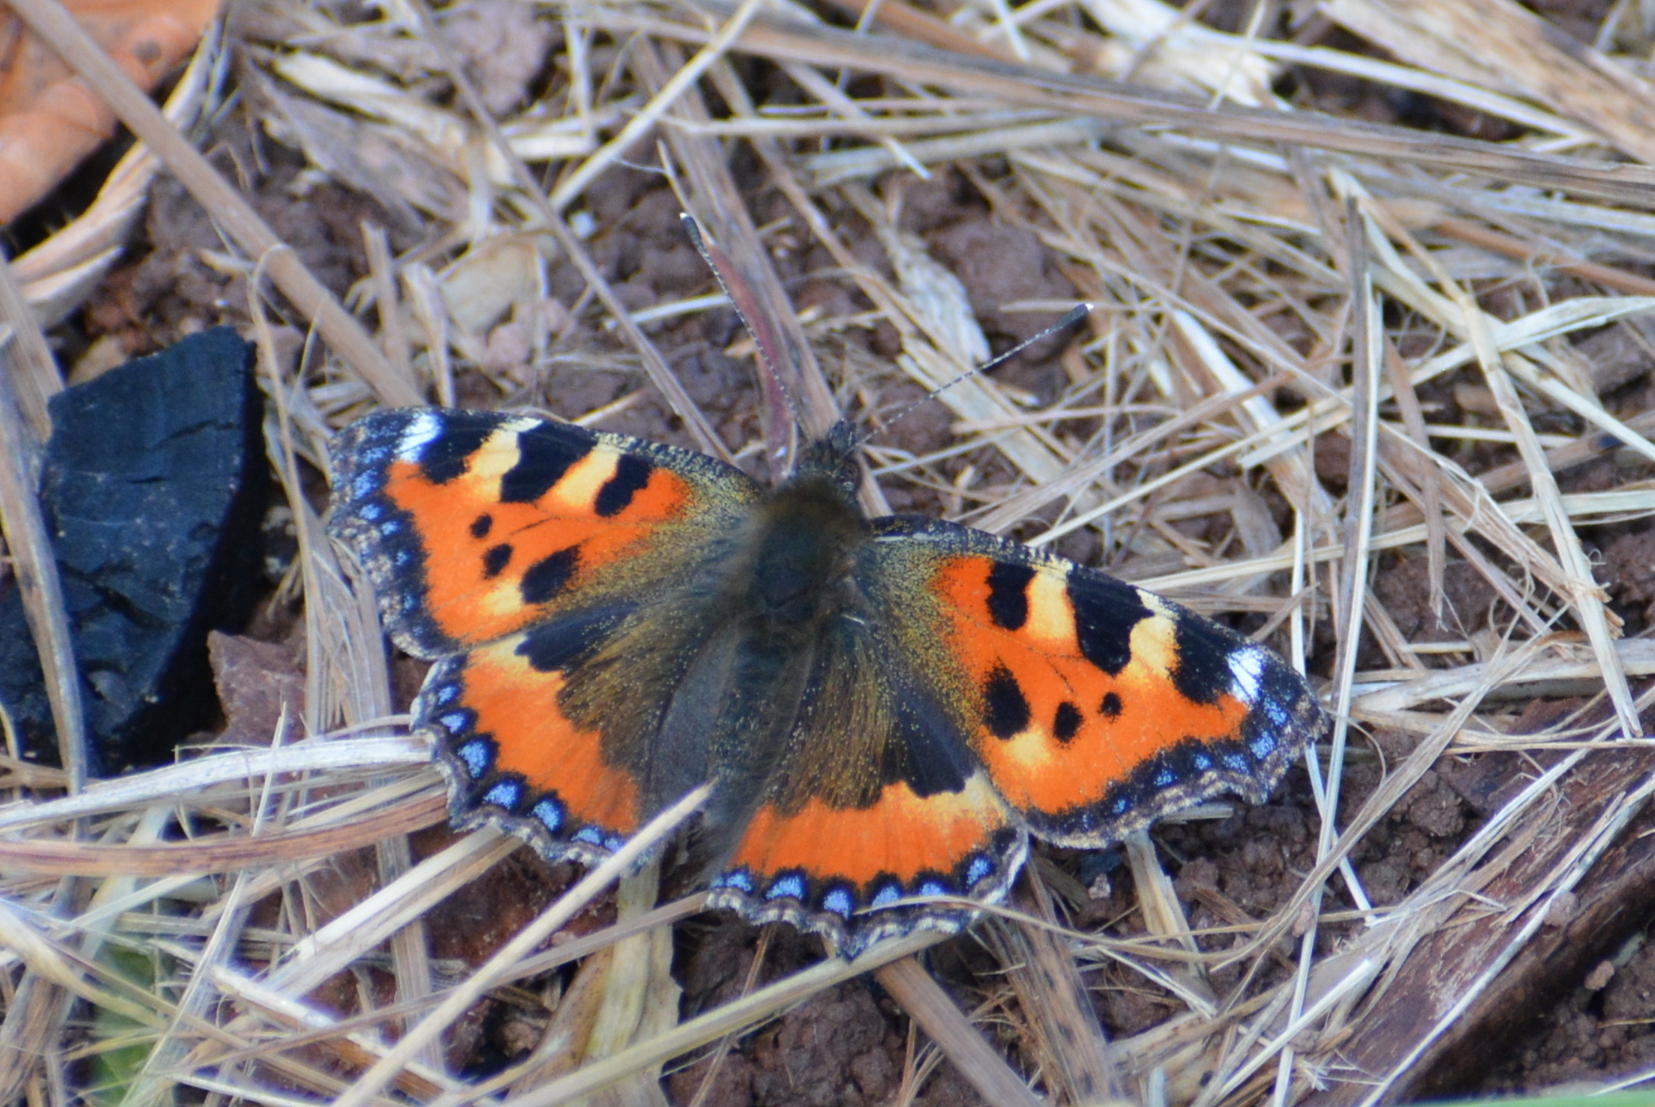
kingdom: Animalia
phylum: Arthropoda
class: Insecta
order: Lepidoptera
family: Nymphalidae
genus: Aglais
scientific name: Aglais urticae
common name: Small tortoiseshell
